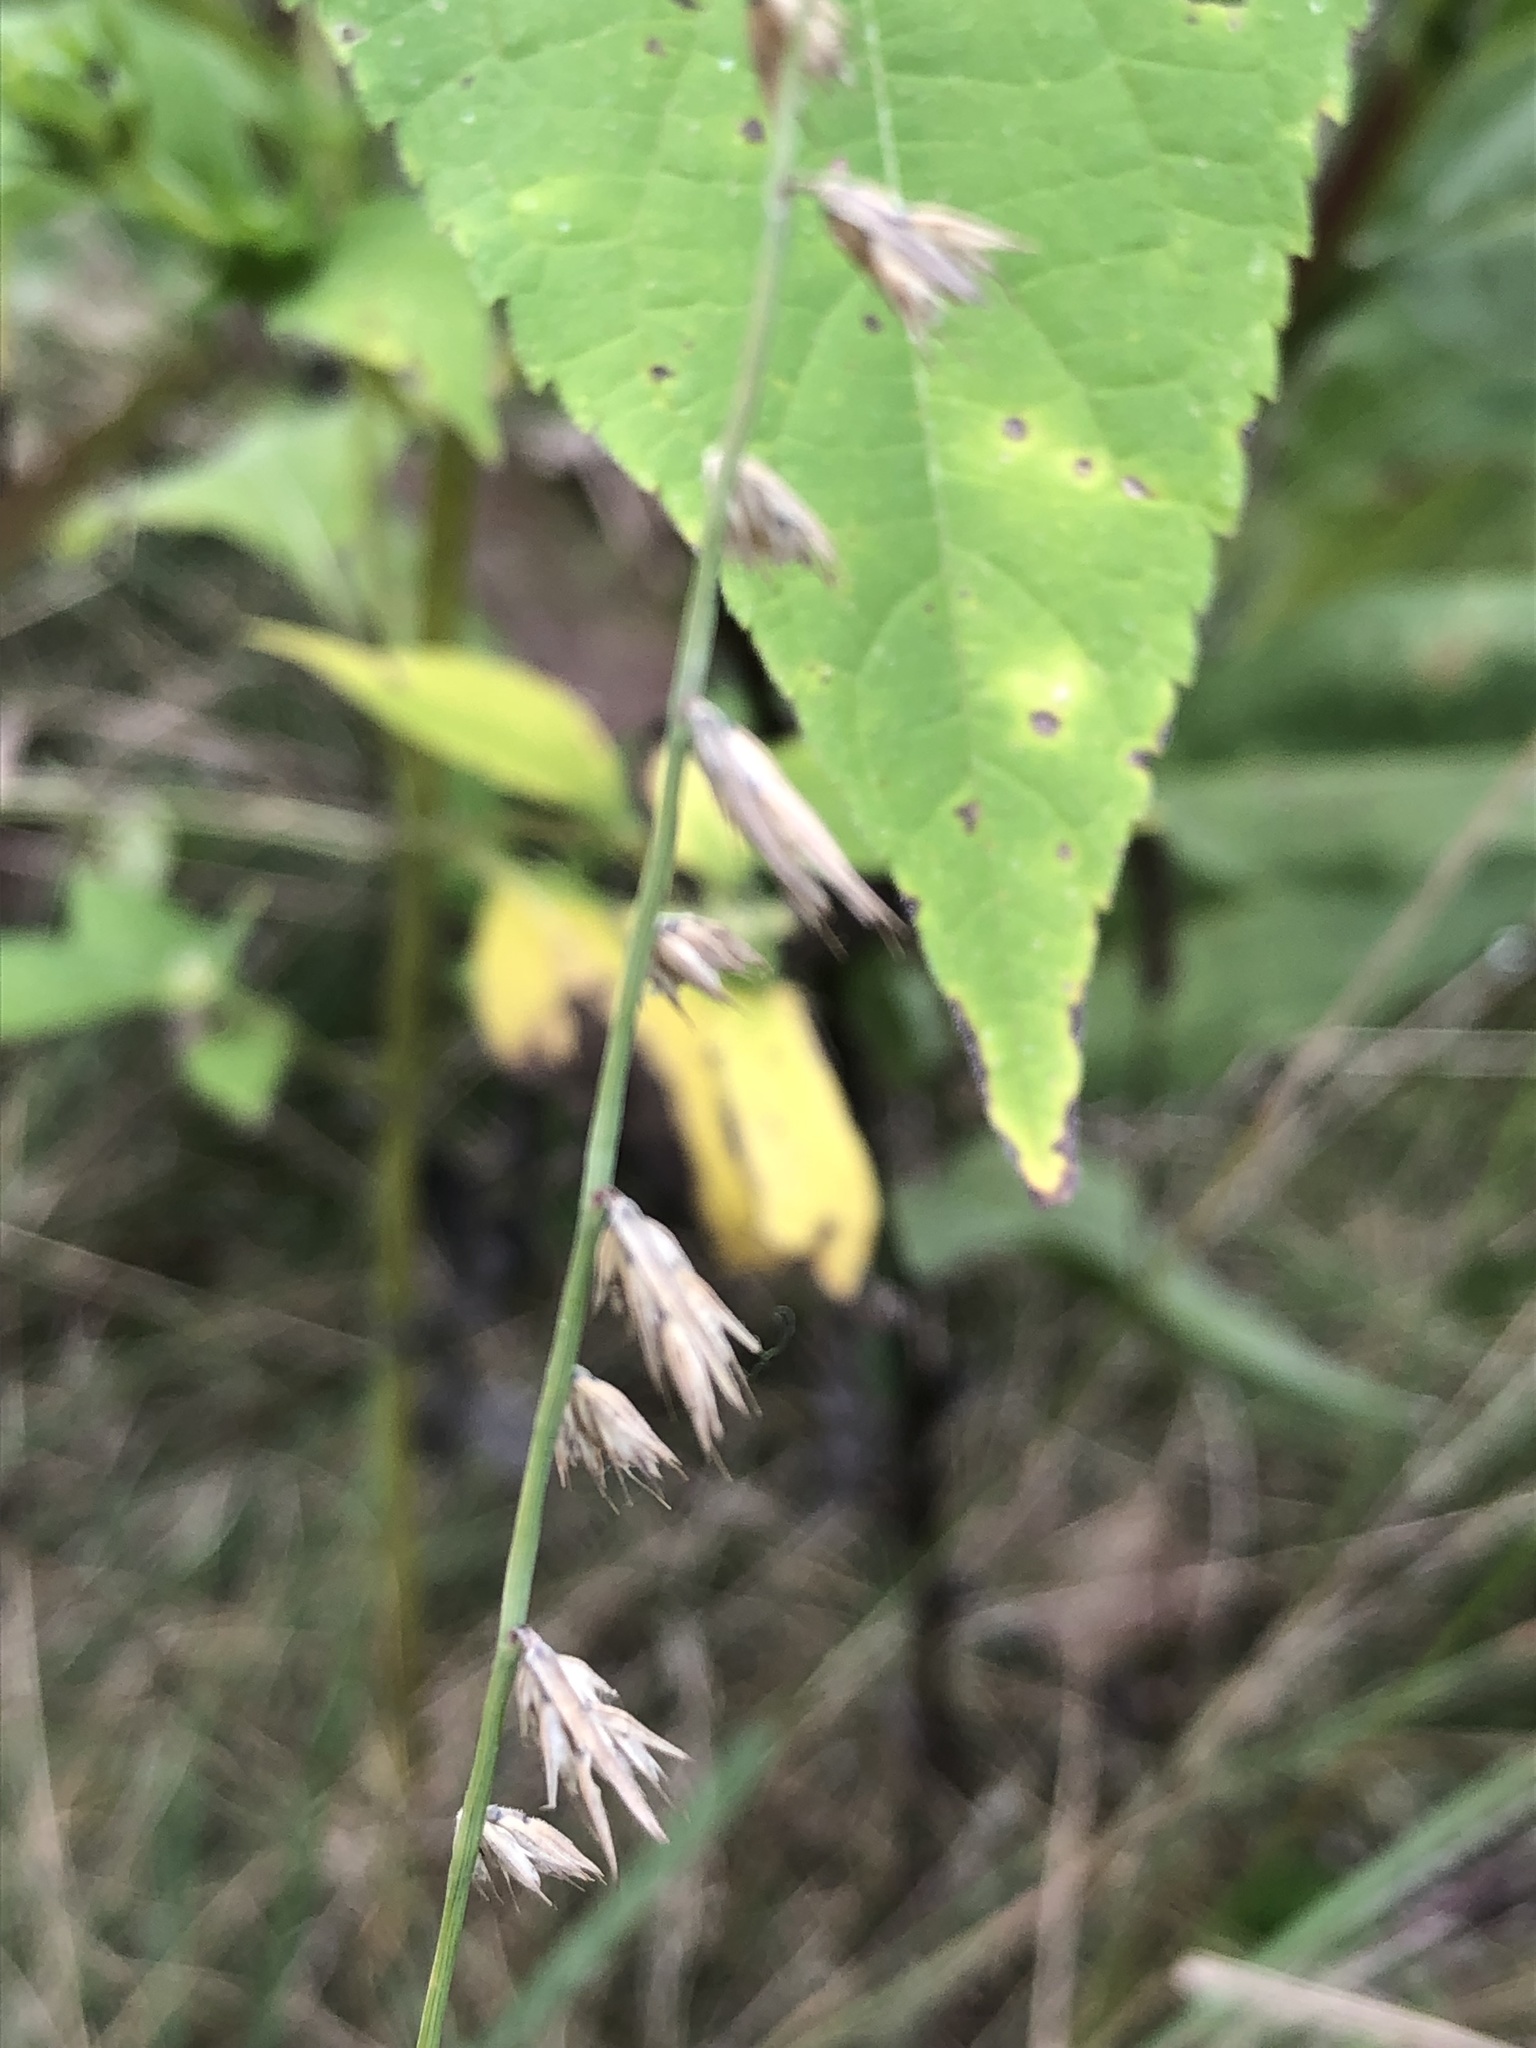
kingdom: Plantae
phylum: Tracheophyta
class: Liliopsida
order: Poales
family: Poaceae
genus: Bouteloua
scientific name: Bouteloua curtipendula
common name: Side-oats grama
